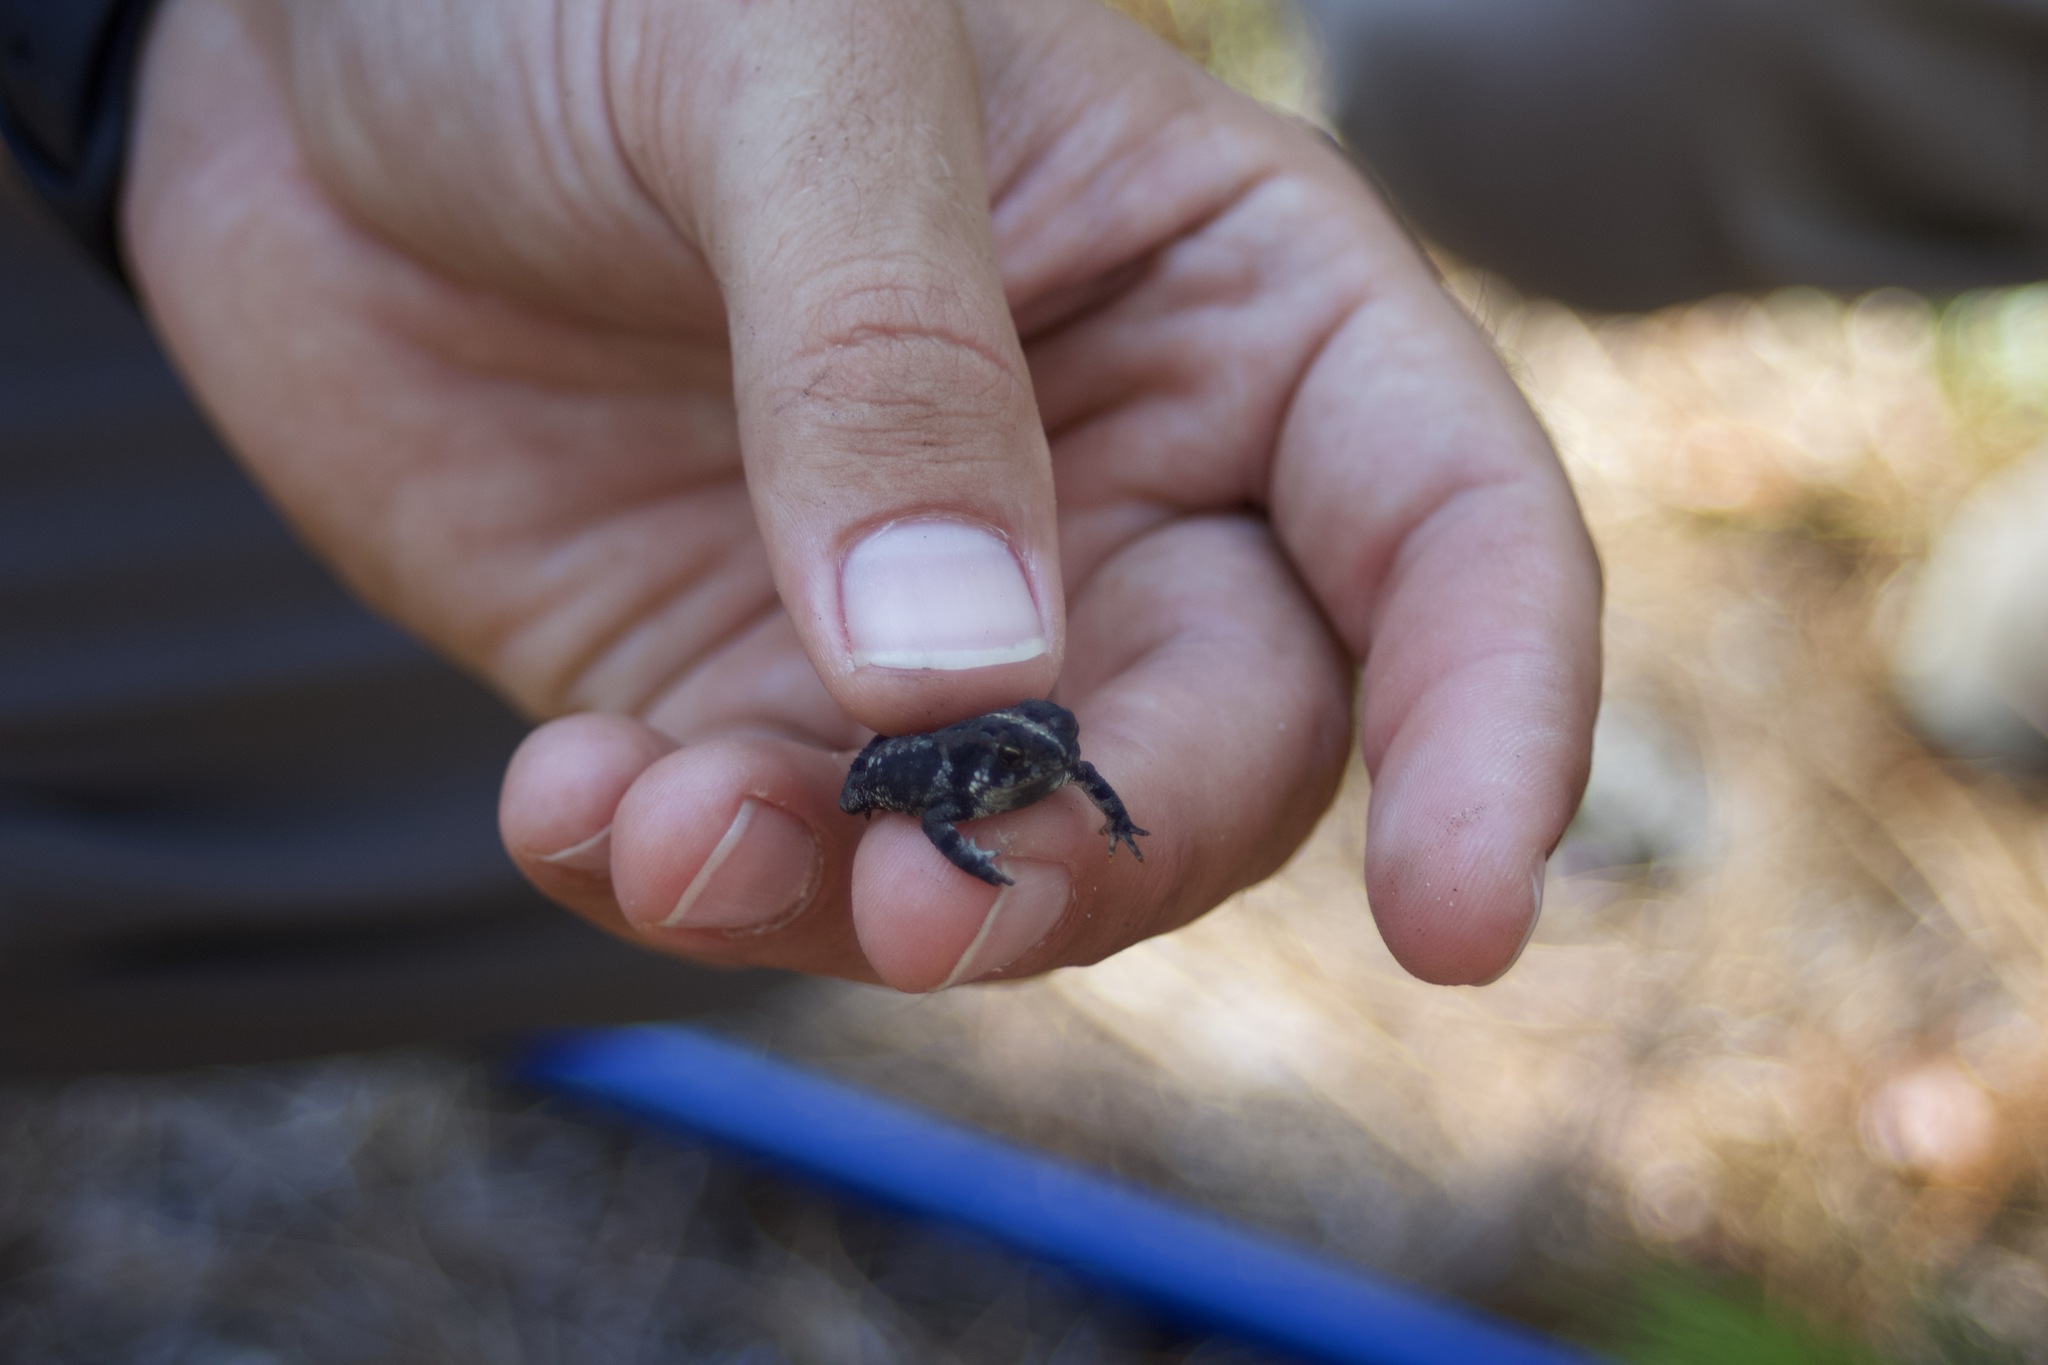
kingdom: Animalia
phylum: Chordata
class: Amphibia
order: Anura
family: Bufonidae
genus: Anaxyrus
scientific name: Anaxyrus quercicus
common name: Oak toad
